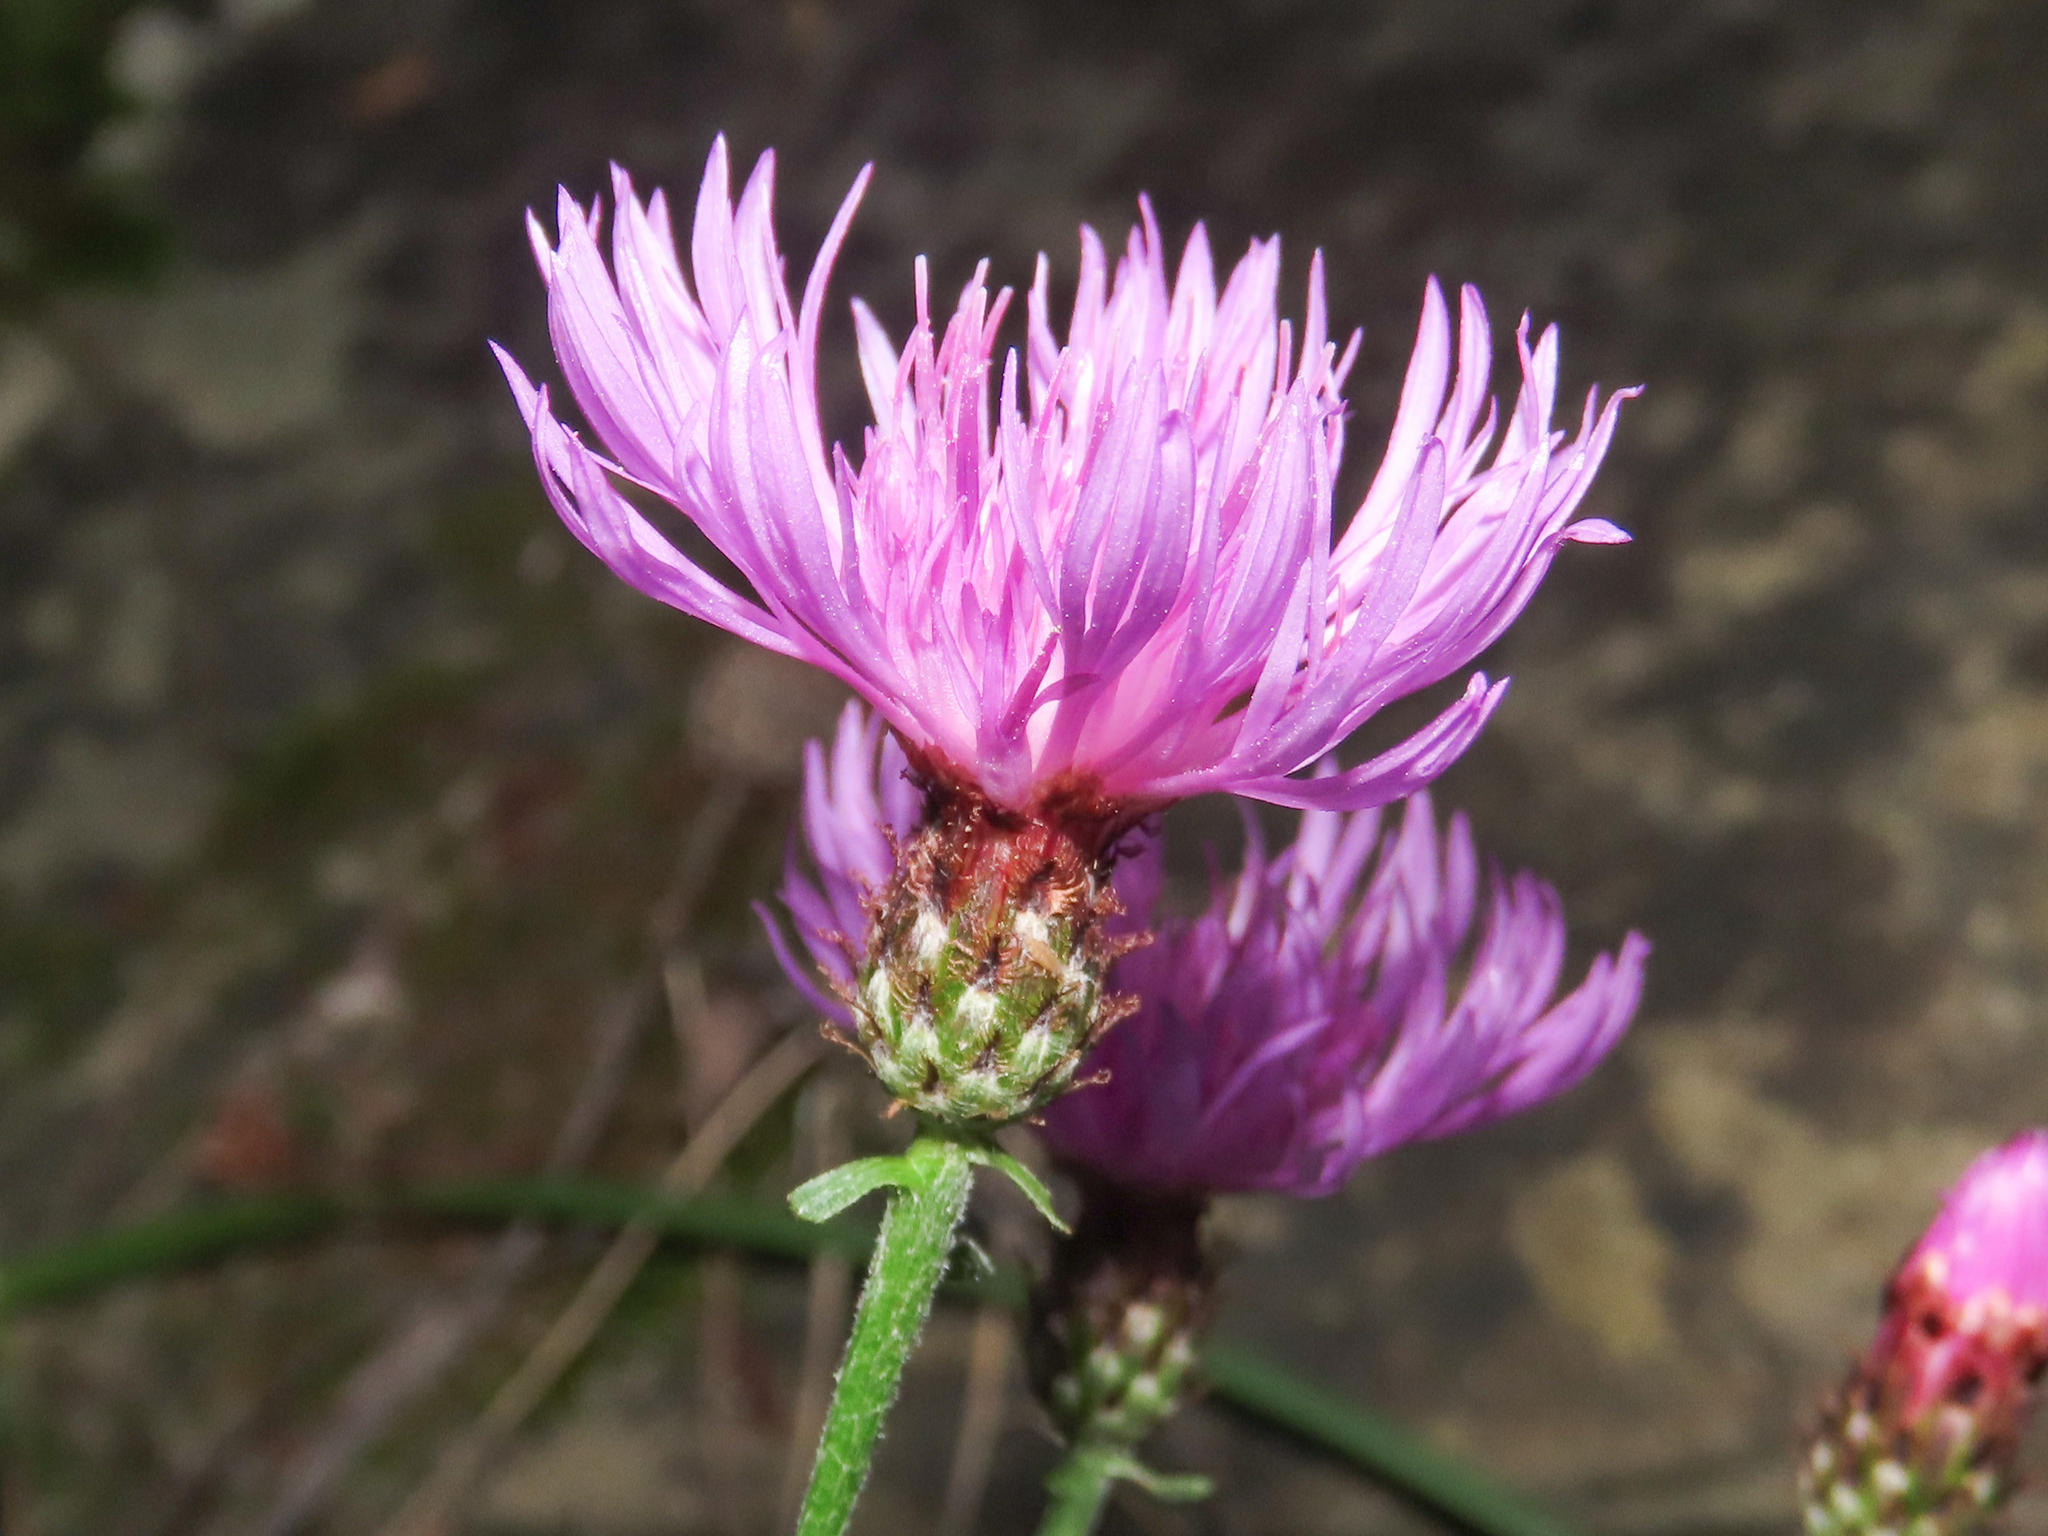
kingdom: Plantae
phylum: Tracheophyta
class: Magnoliopsida
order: Asterales
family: Asteraceae
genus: Centaurea
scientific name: Centaurea nigrescens
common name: Tyrol knapweed
